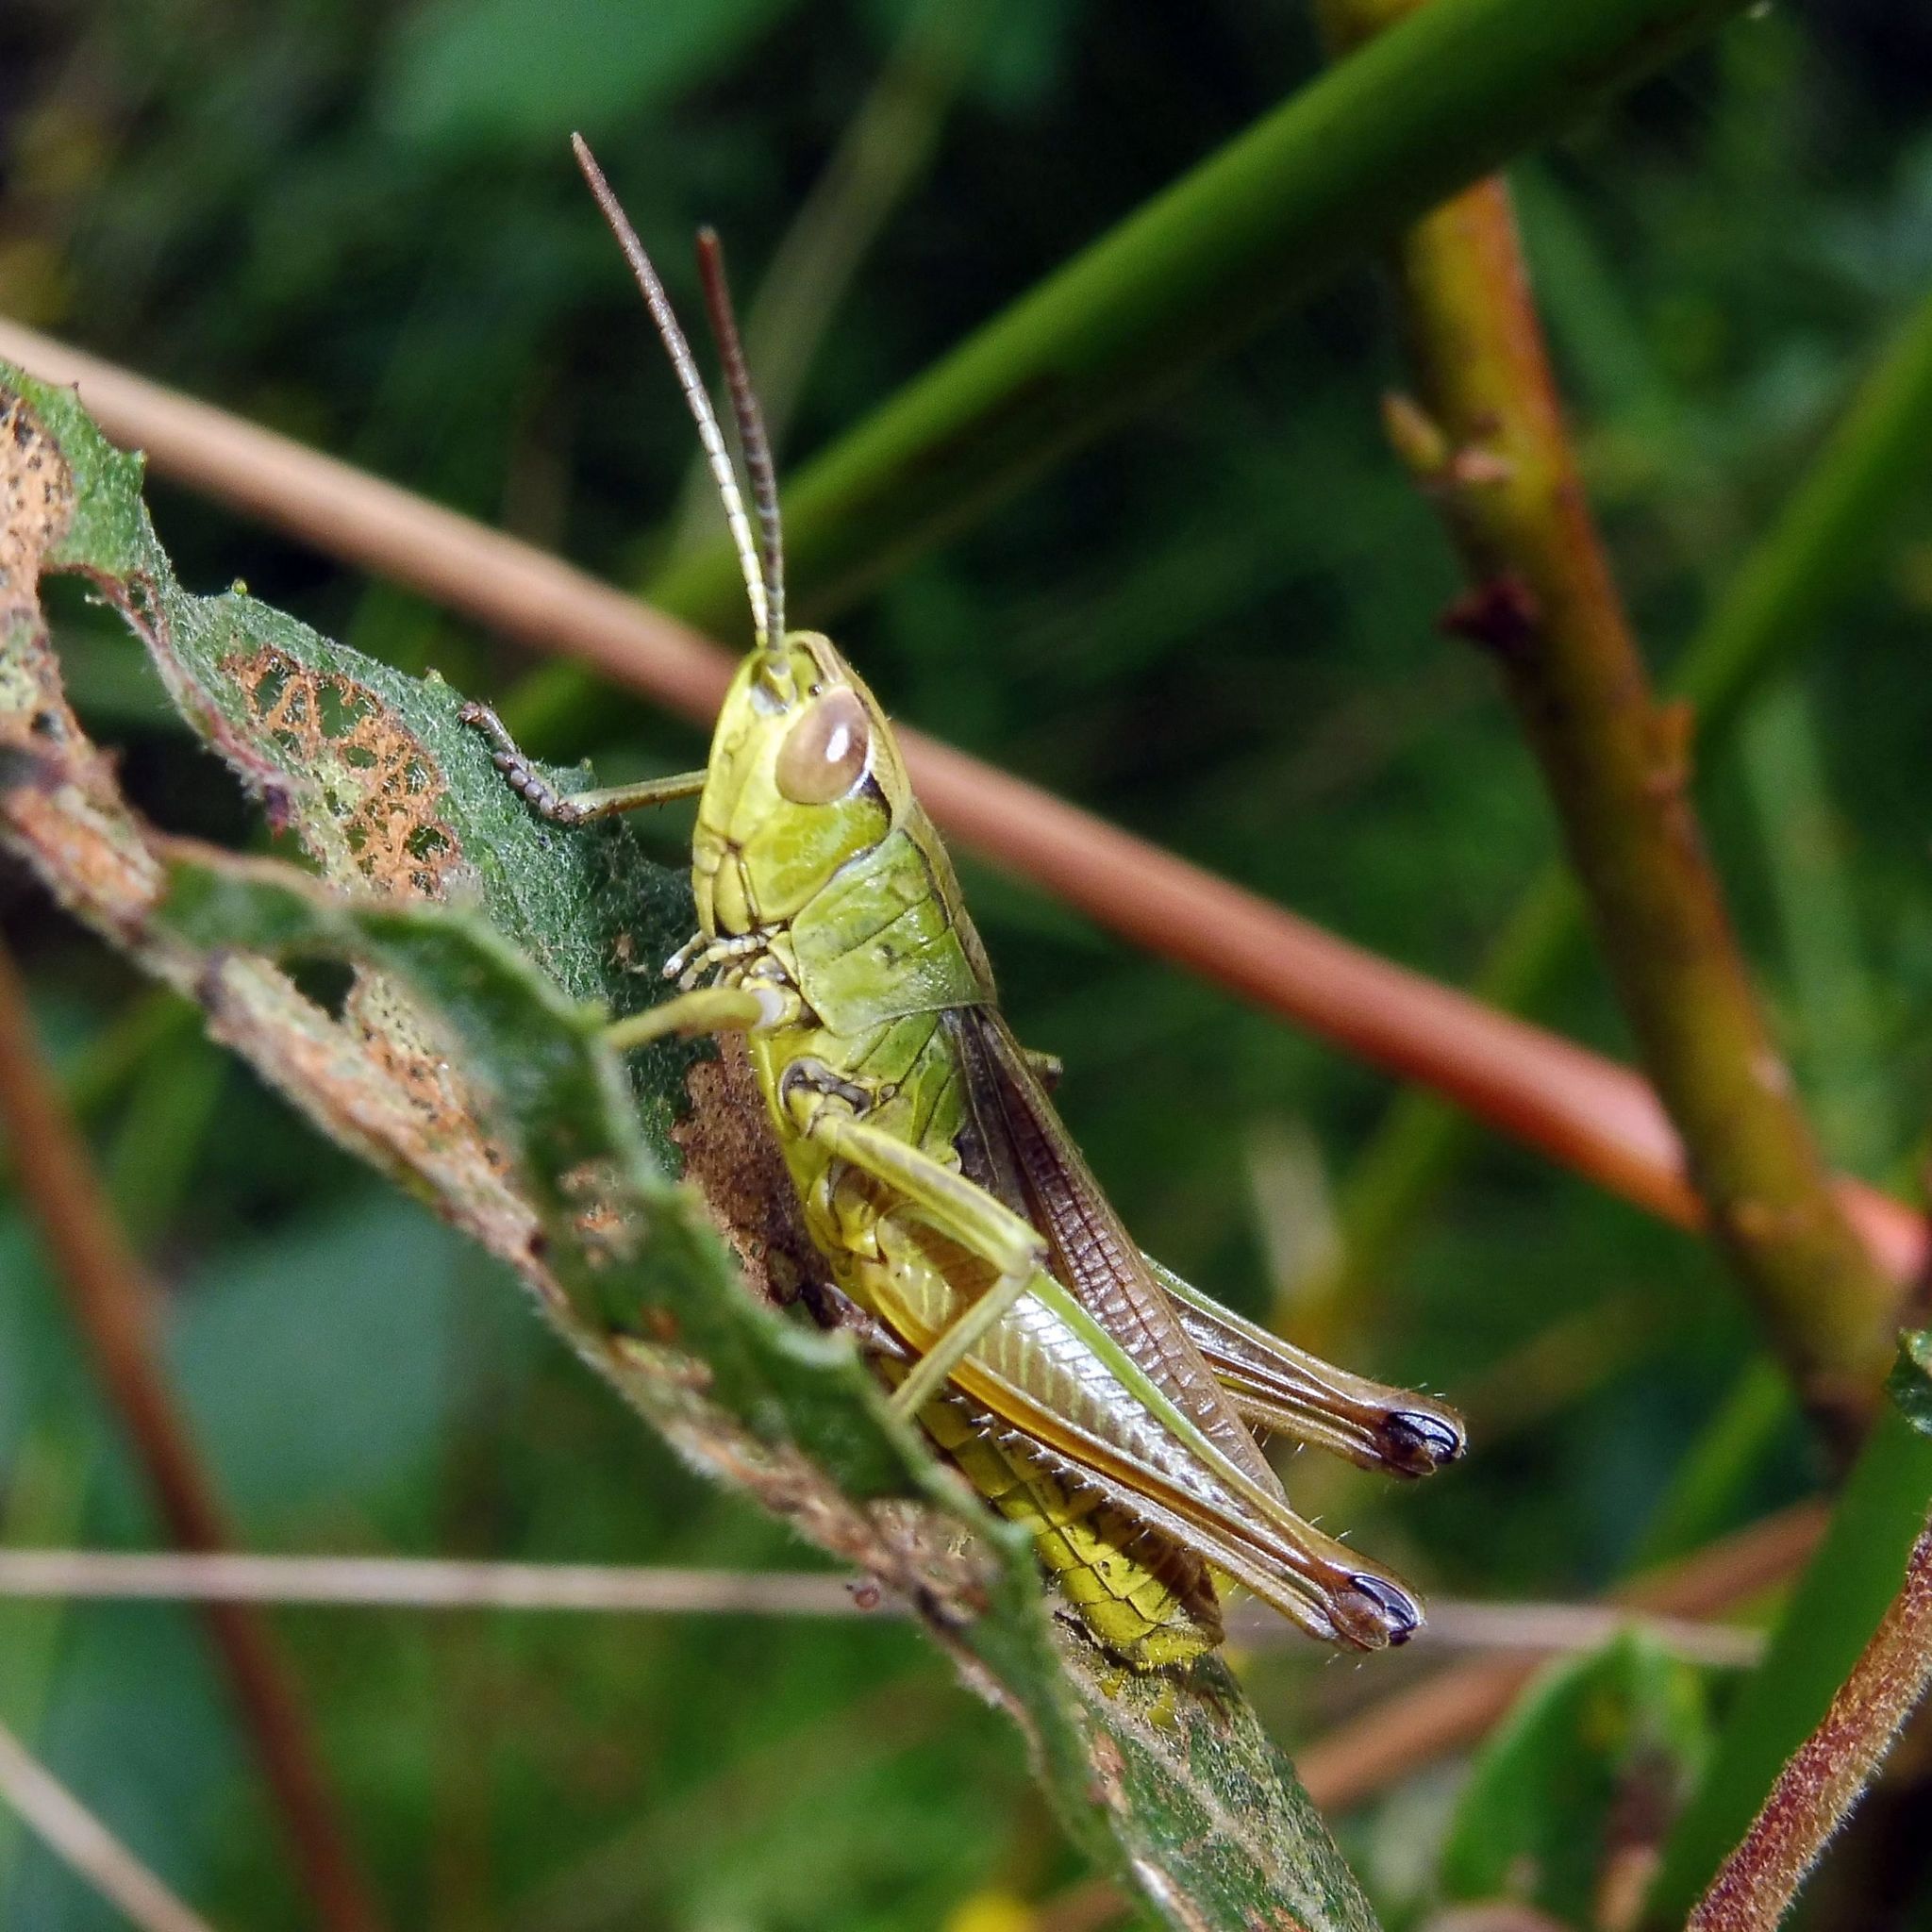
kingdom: Animalia
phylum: Arthropoda
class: Insecta
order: Orthoptera
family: Acrididae
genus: Pseudochorthippus
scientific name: Pseudochorthippus parallelus
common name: Meadow grasshopper
